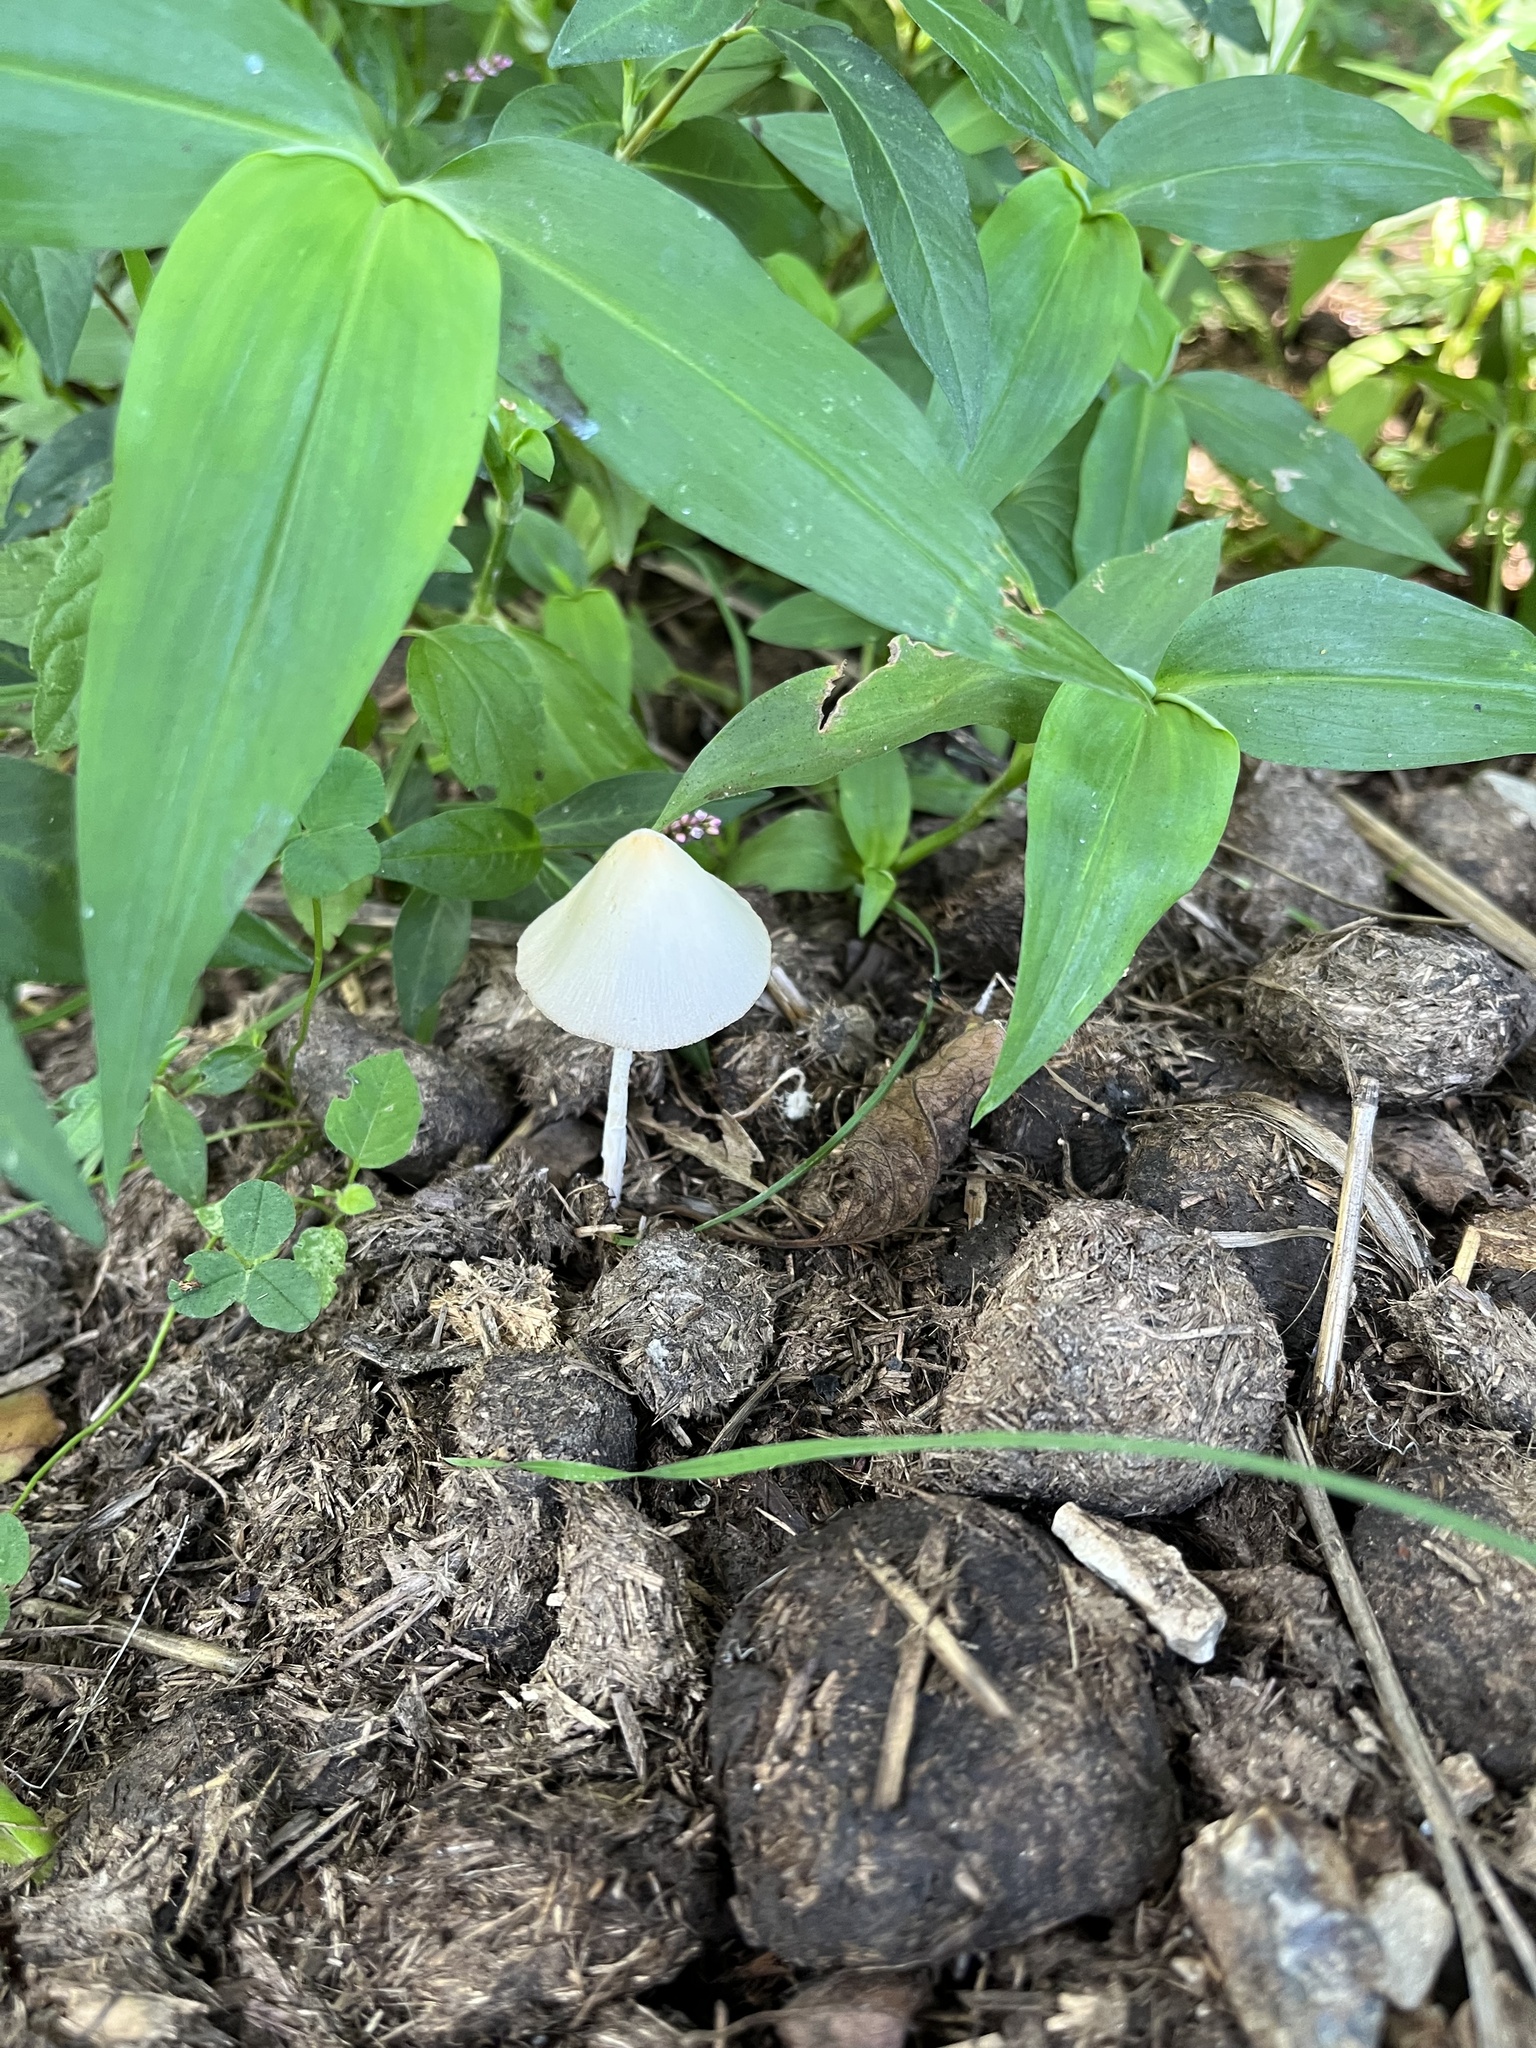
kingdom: Fungi
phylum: Basidiomycota
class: Agaricomycetes
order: Agaricales
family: Bolbitiaceae
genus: Conocybe
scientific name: Conocybe apala
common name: Milky conecap
